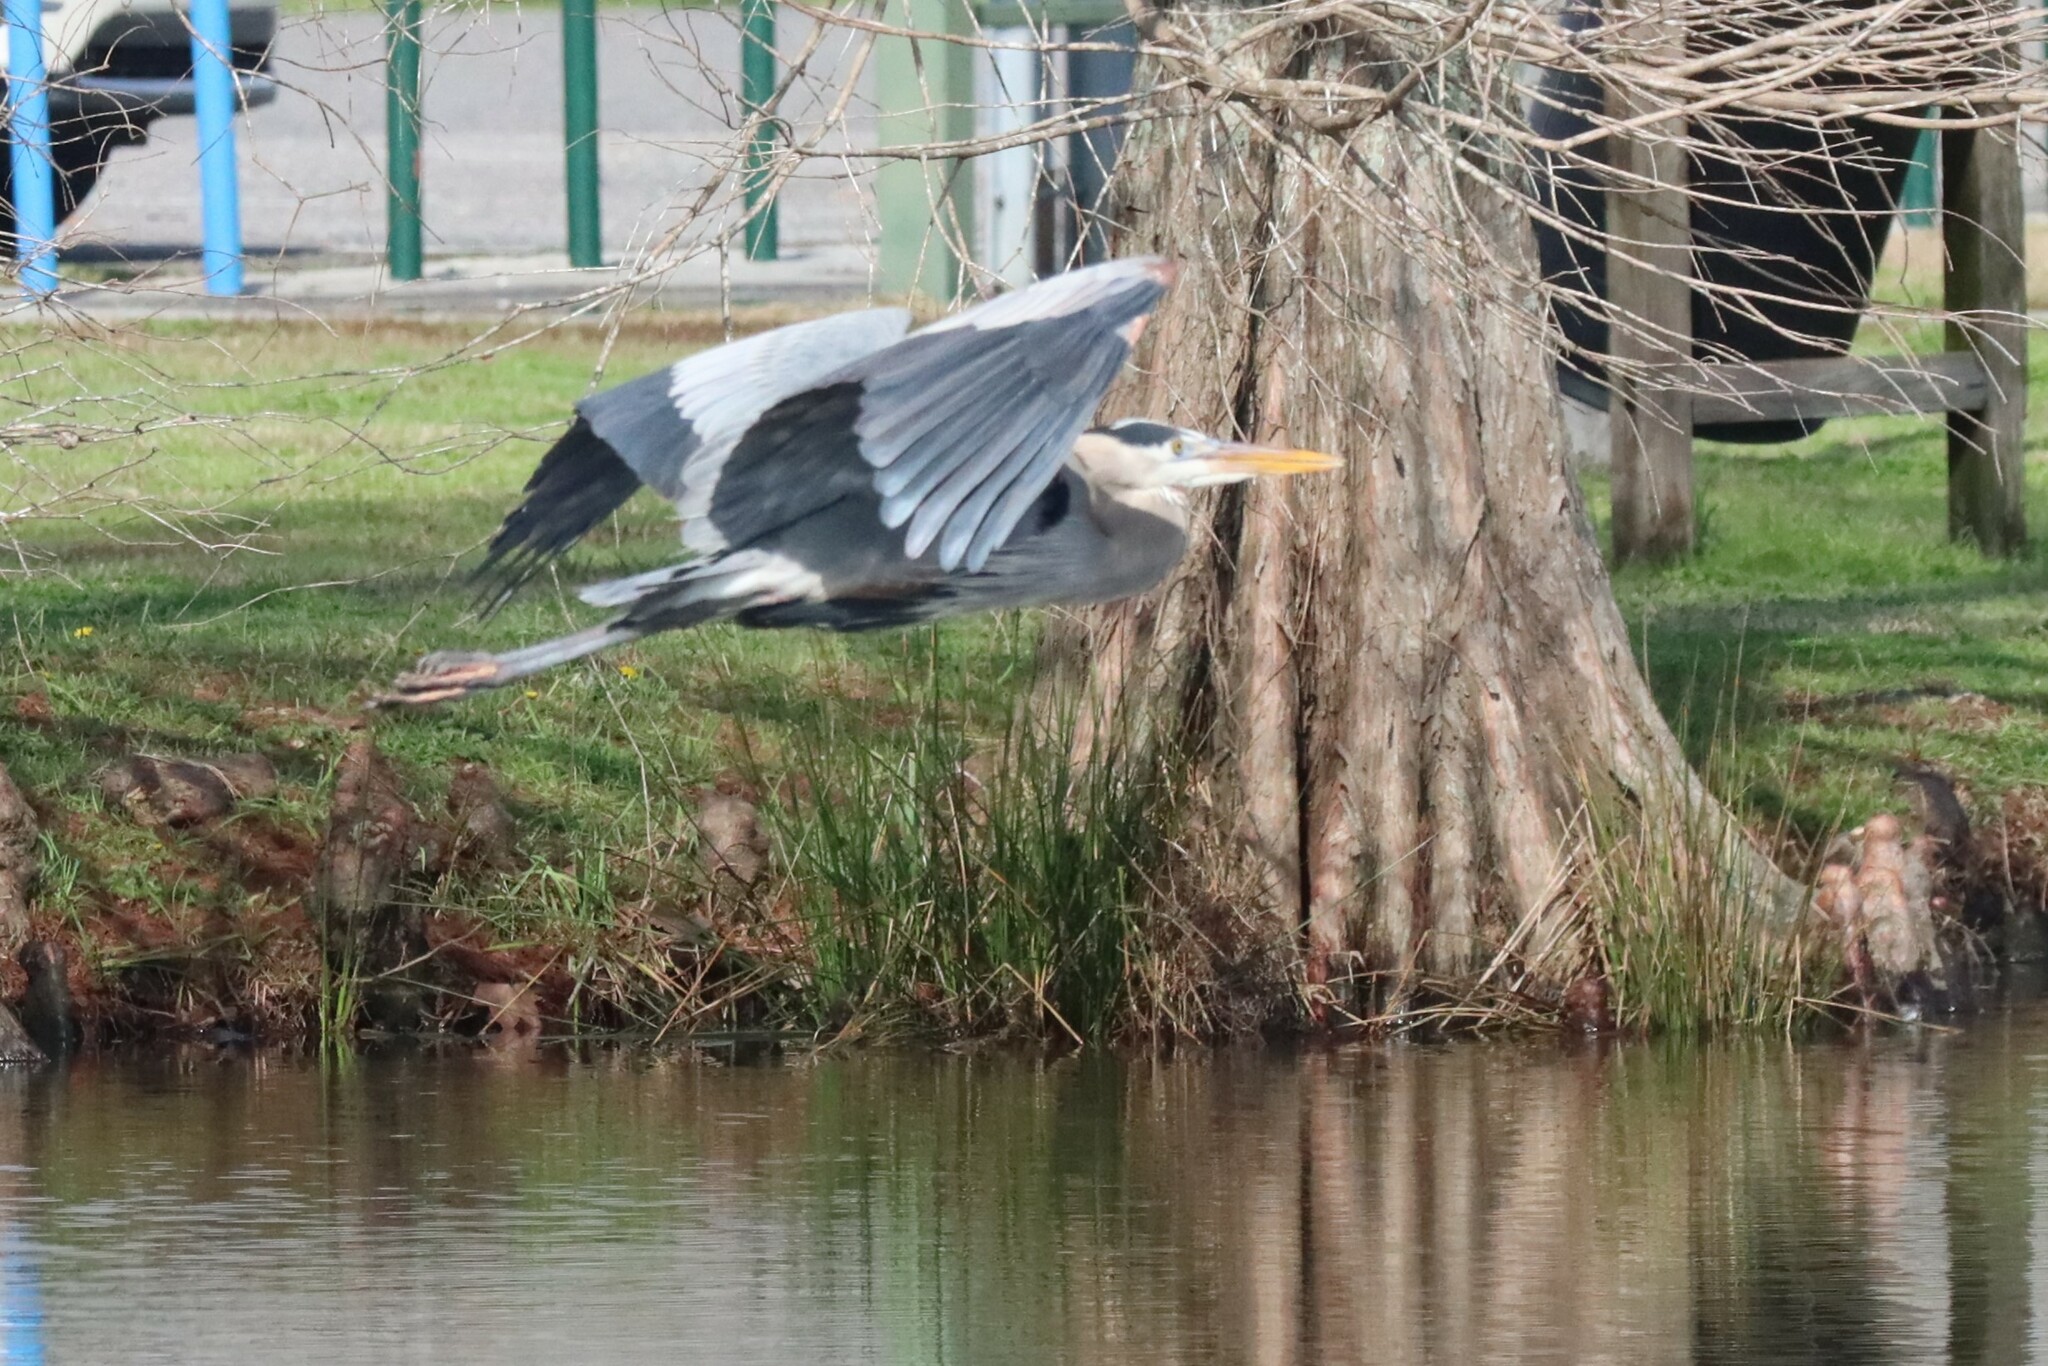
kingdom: Animalia
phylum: Chordata
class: Aves
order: Pelecaniformes
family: Ardeidae
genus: Ardea
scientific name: Ardea herodias
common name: Great blue heron
